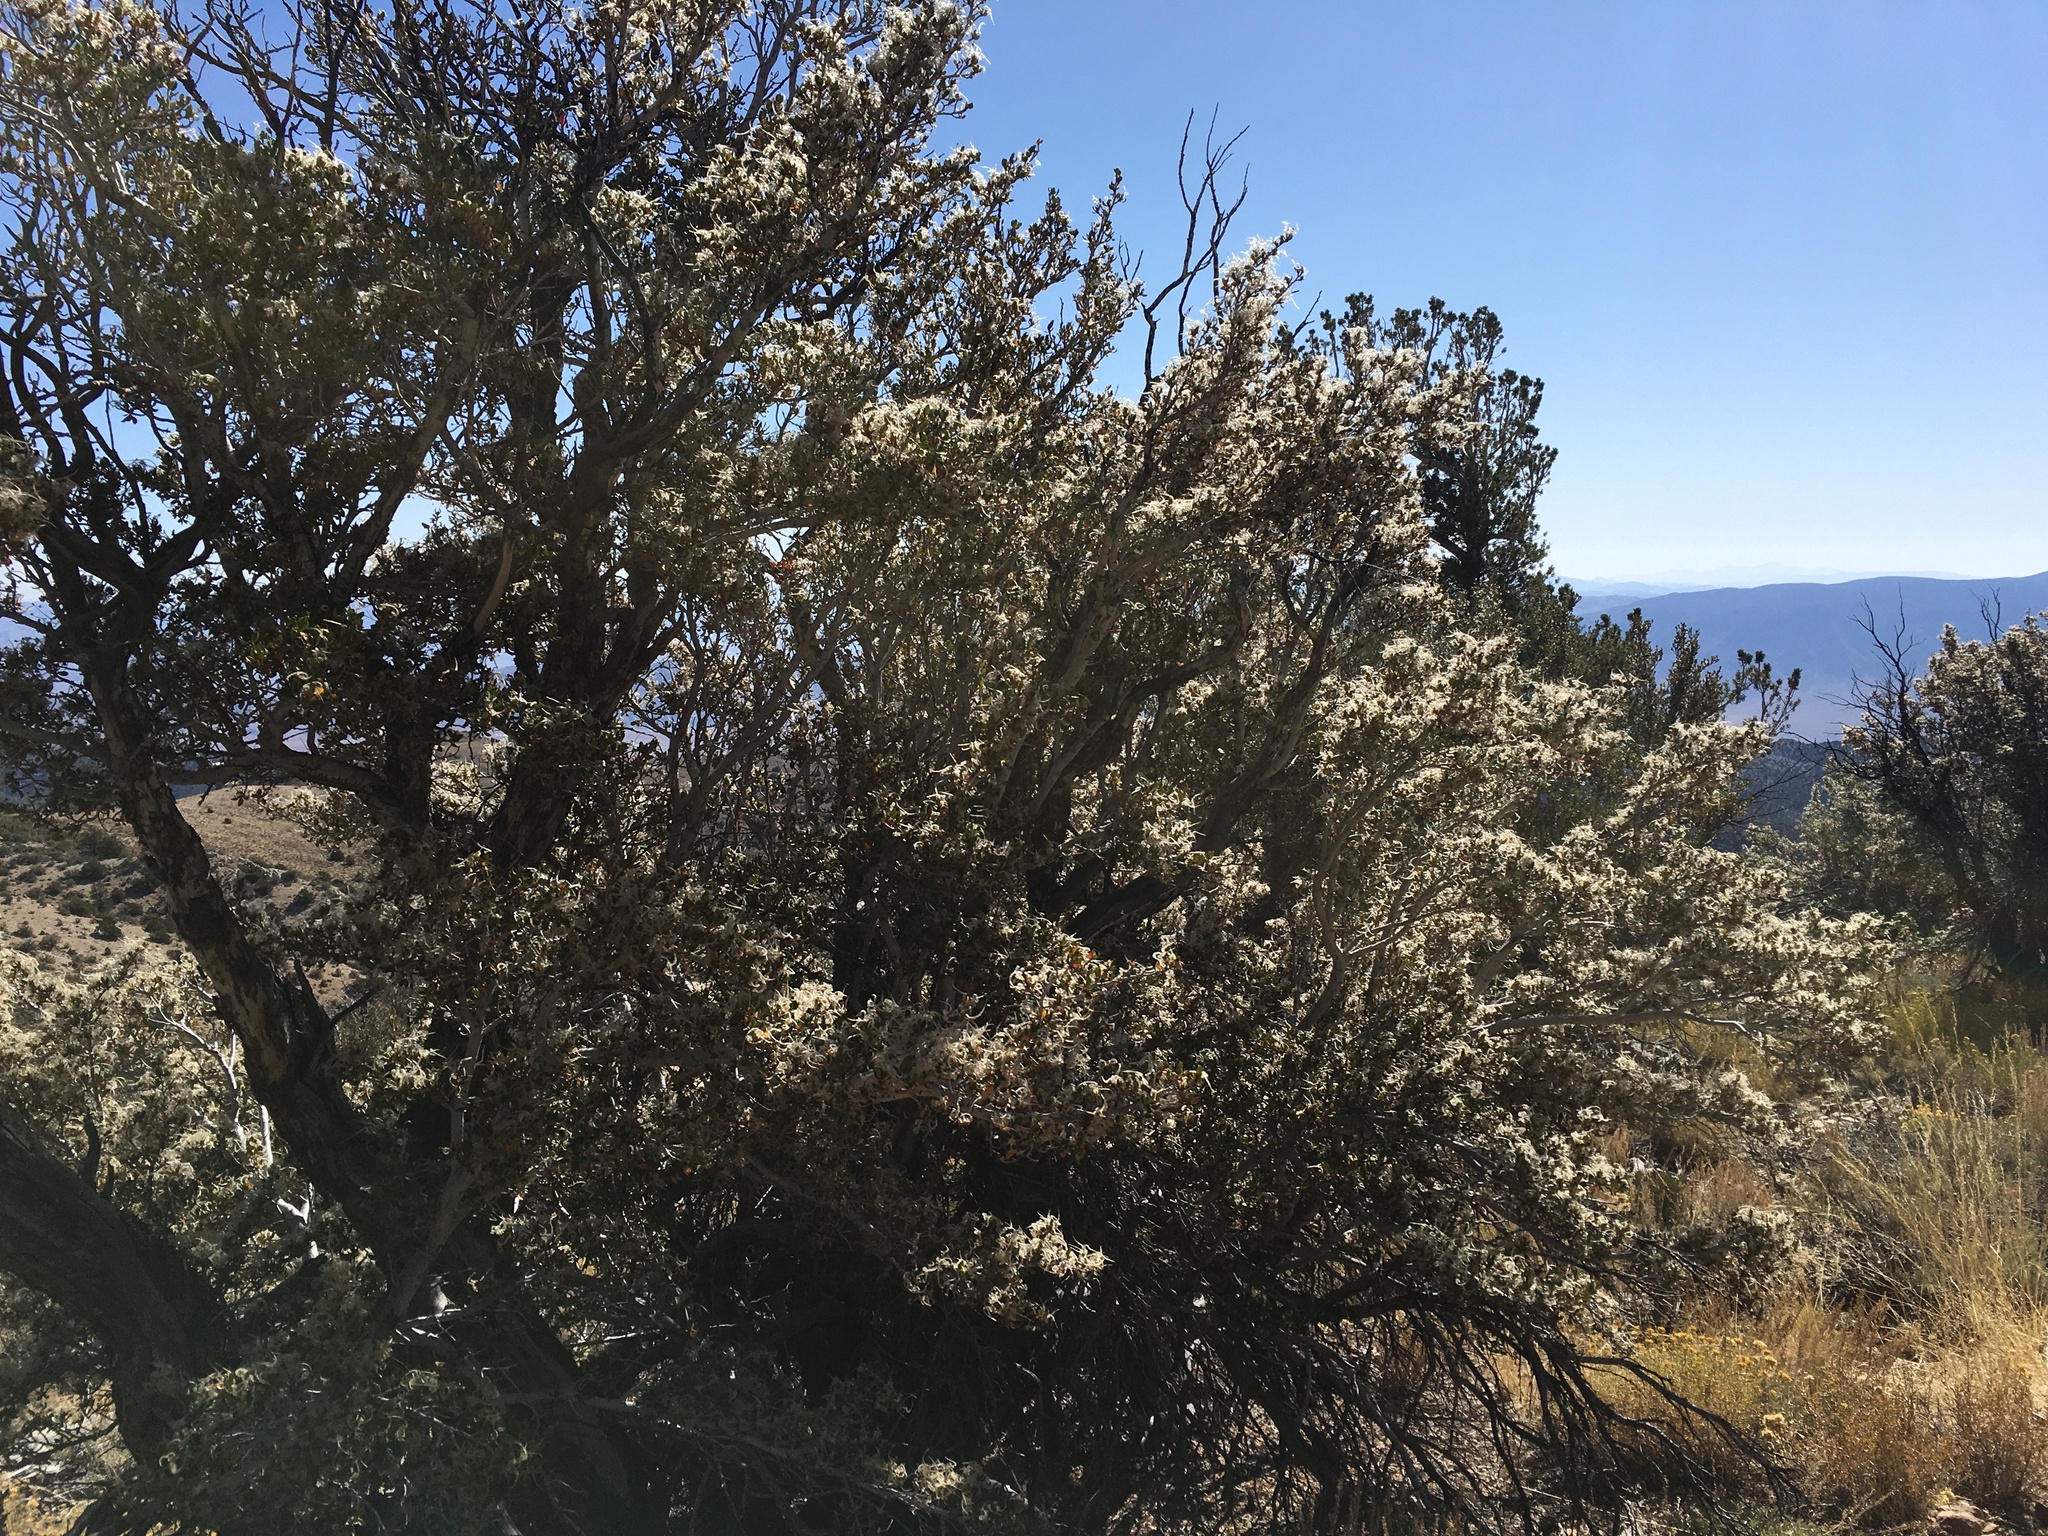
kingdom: Plantae
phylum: Tracheophyta
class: Magnoliopsida
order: Rosales
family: Rosaceae
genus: Cercocarpus
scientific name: Cercocarpus ledifolius
